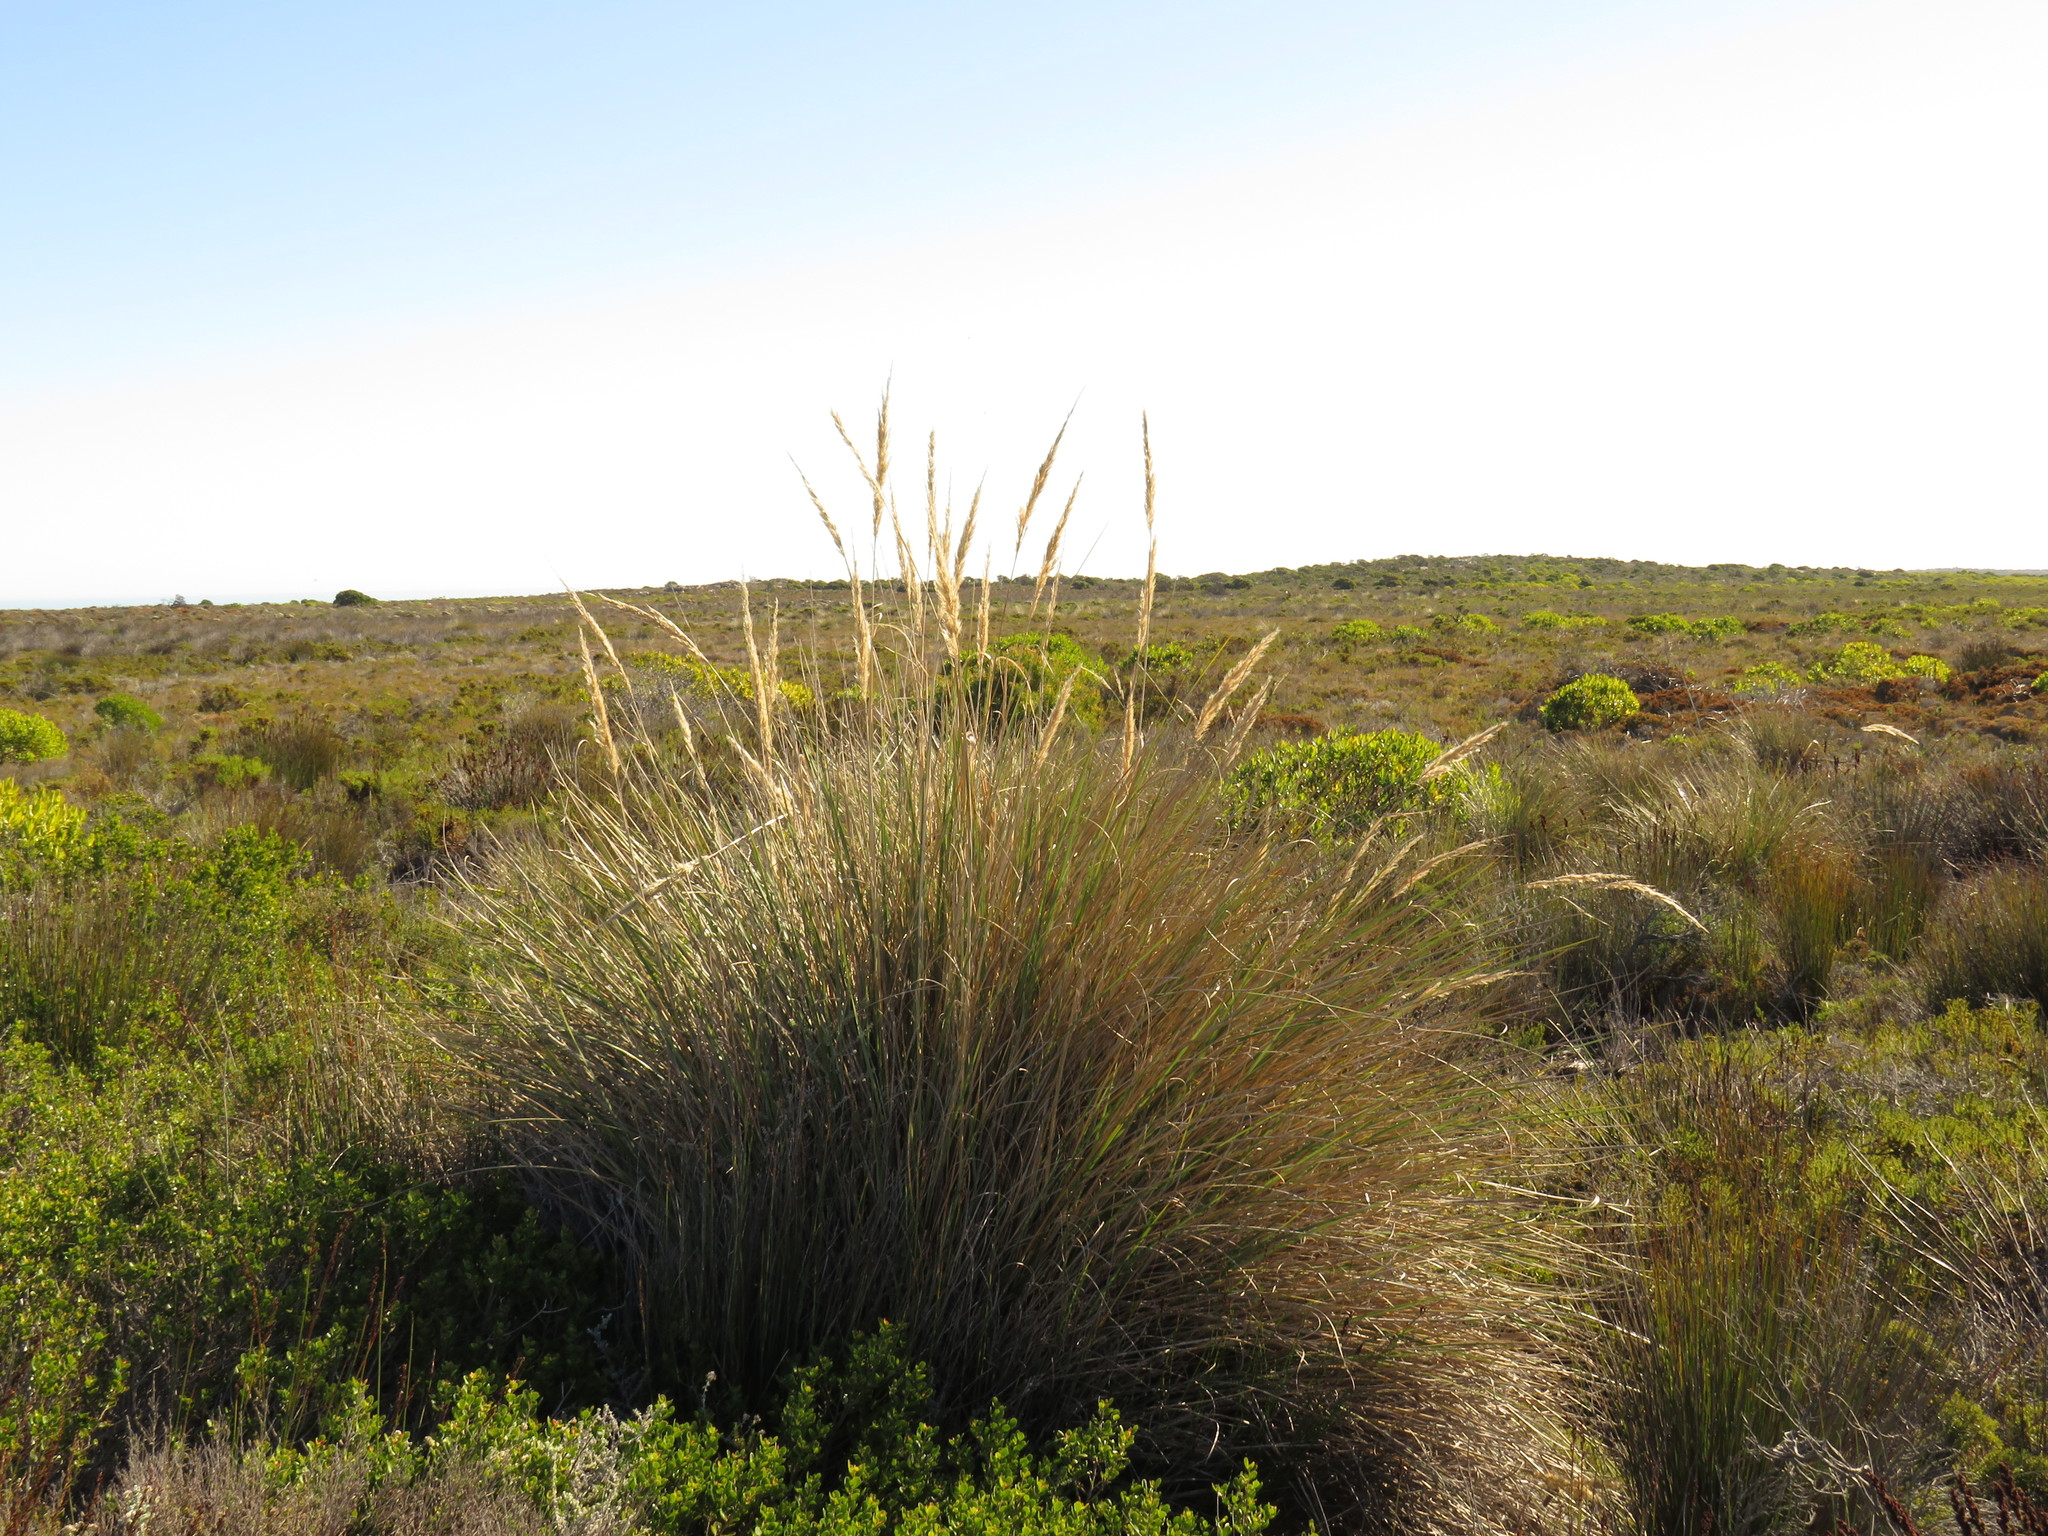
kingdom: Plantae
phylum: Tracheophyta
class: Liliopsida
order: Poales
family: Poaceae
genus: Capeochloa
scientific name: Capeochloa cincta
